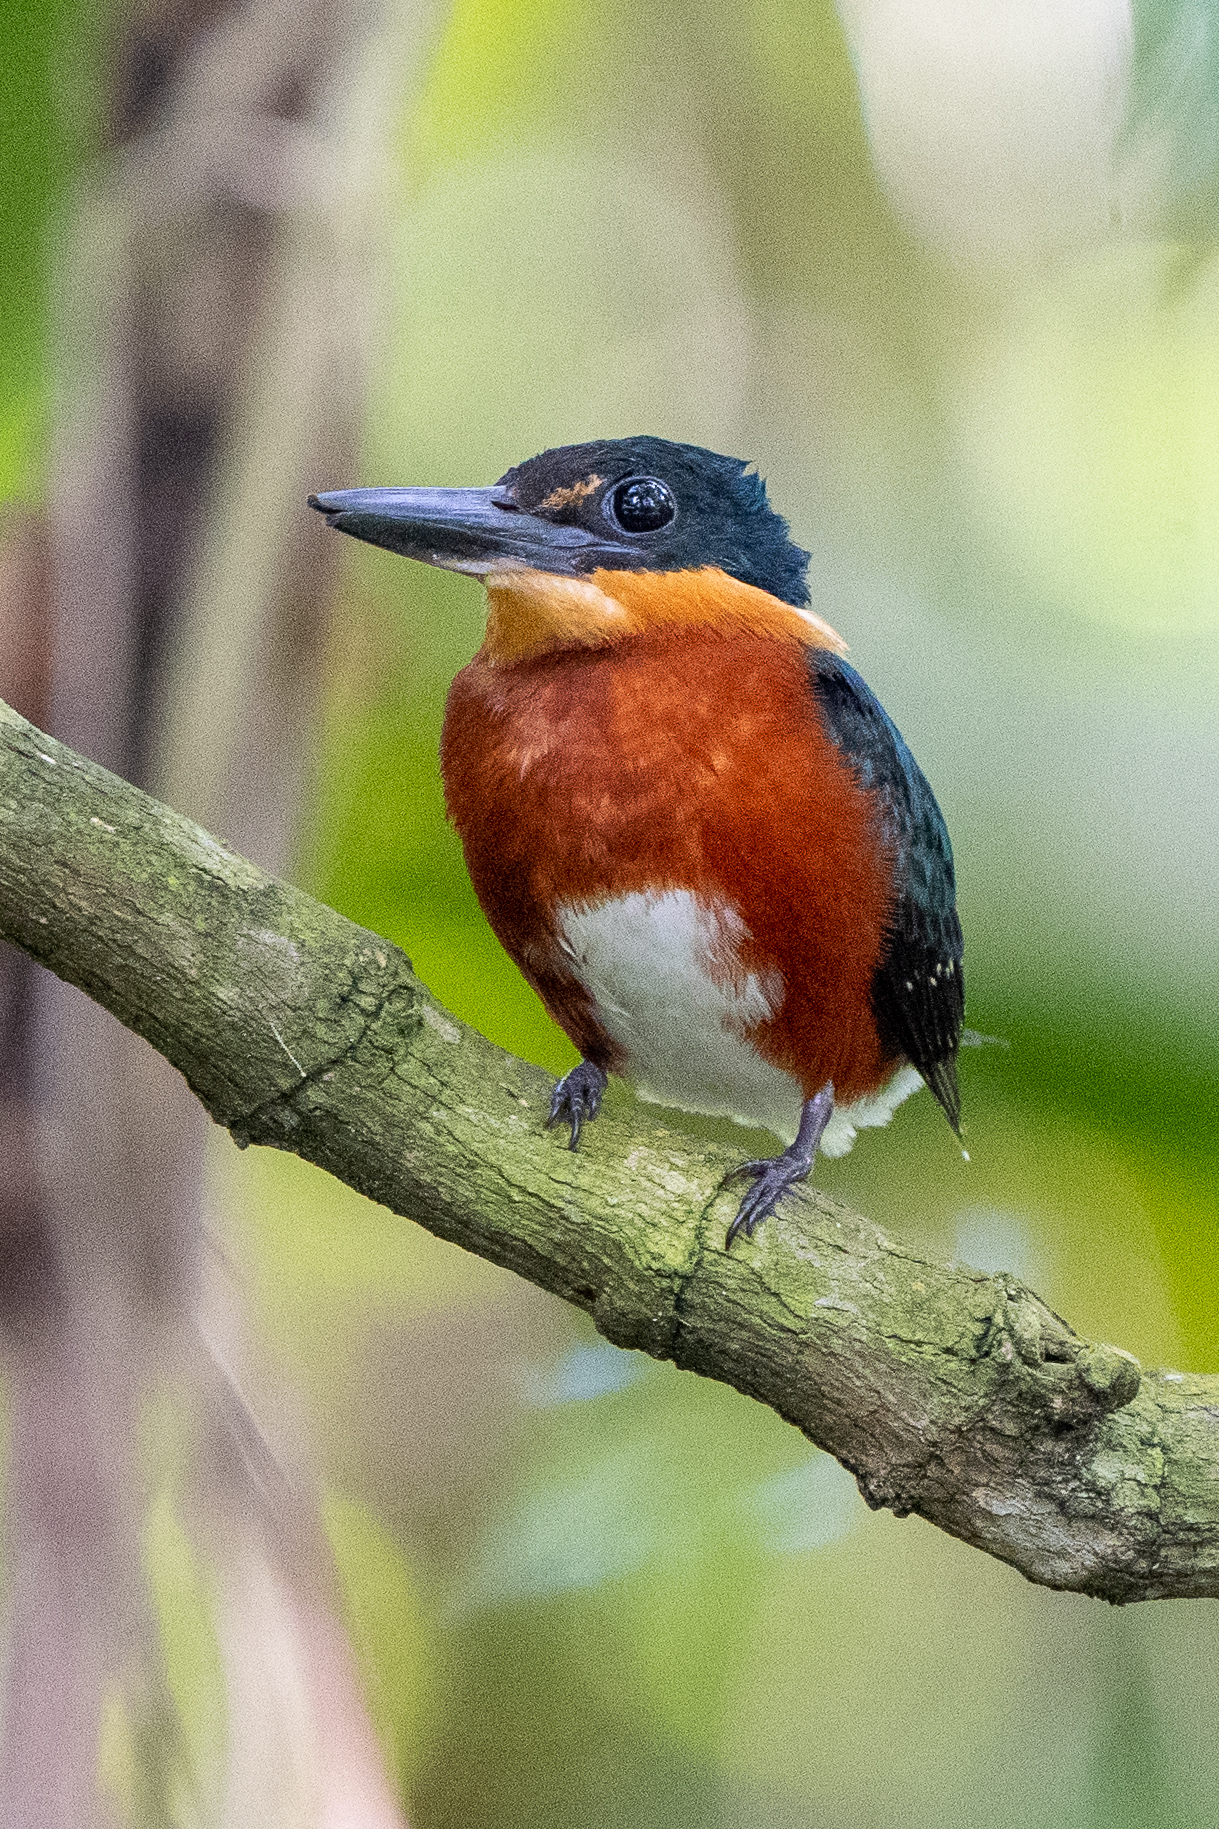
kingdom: Animalia
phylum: Chordata
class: Aves
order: Coraciiformes
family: Alcedinidae
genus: Chloroceryle
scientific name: Chloroceryle aenea
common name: American pygmy kingfisher
